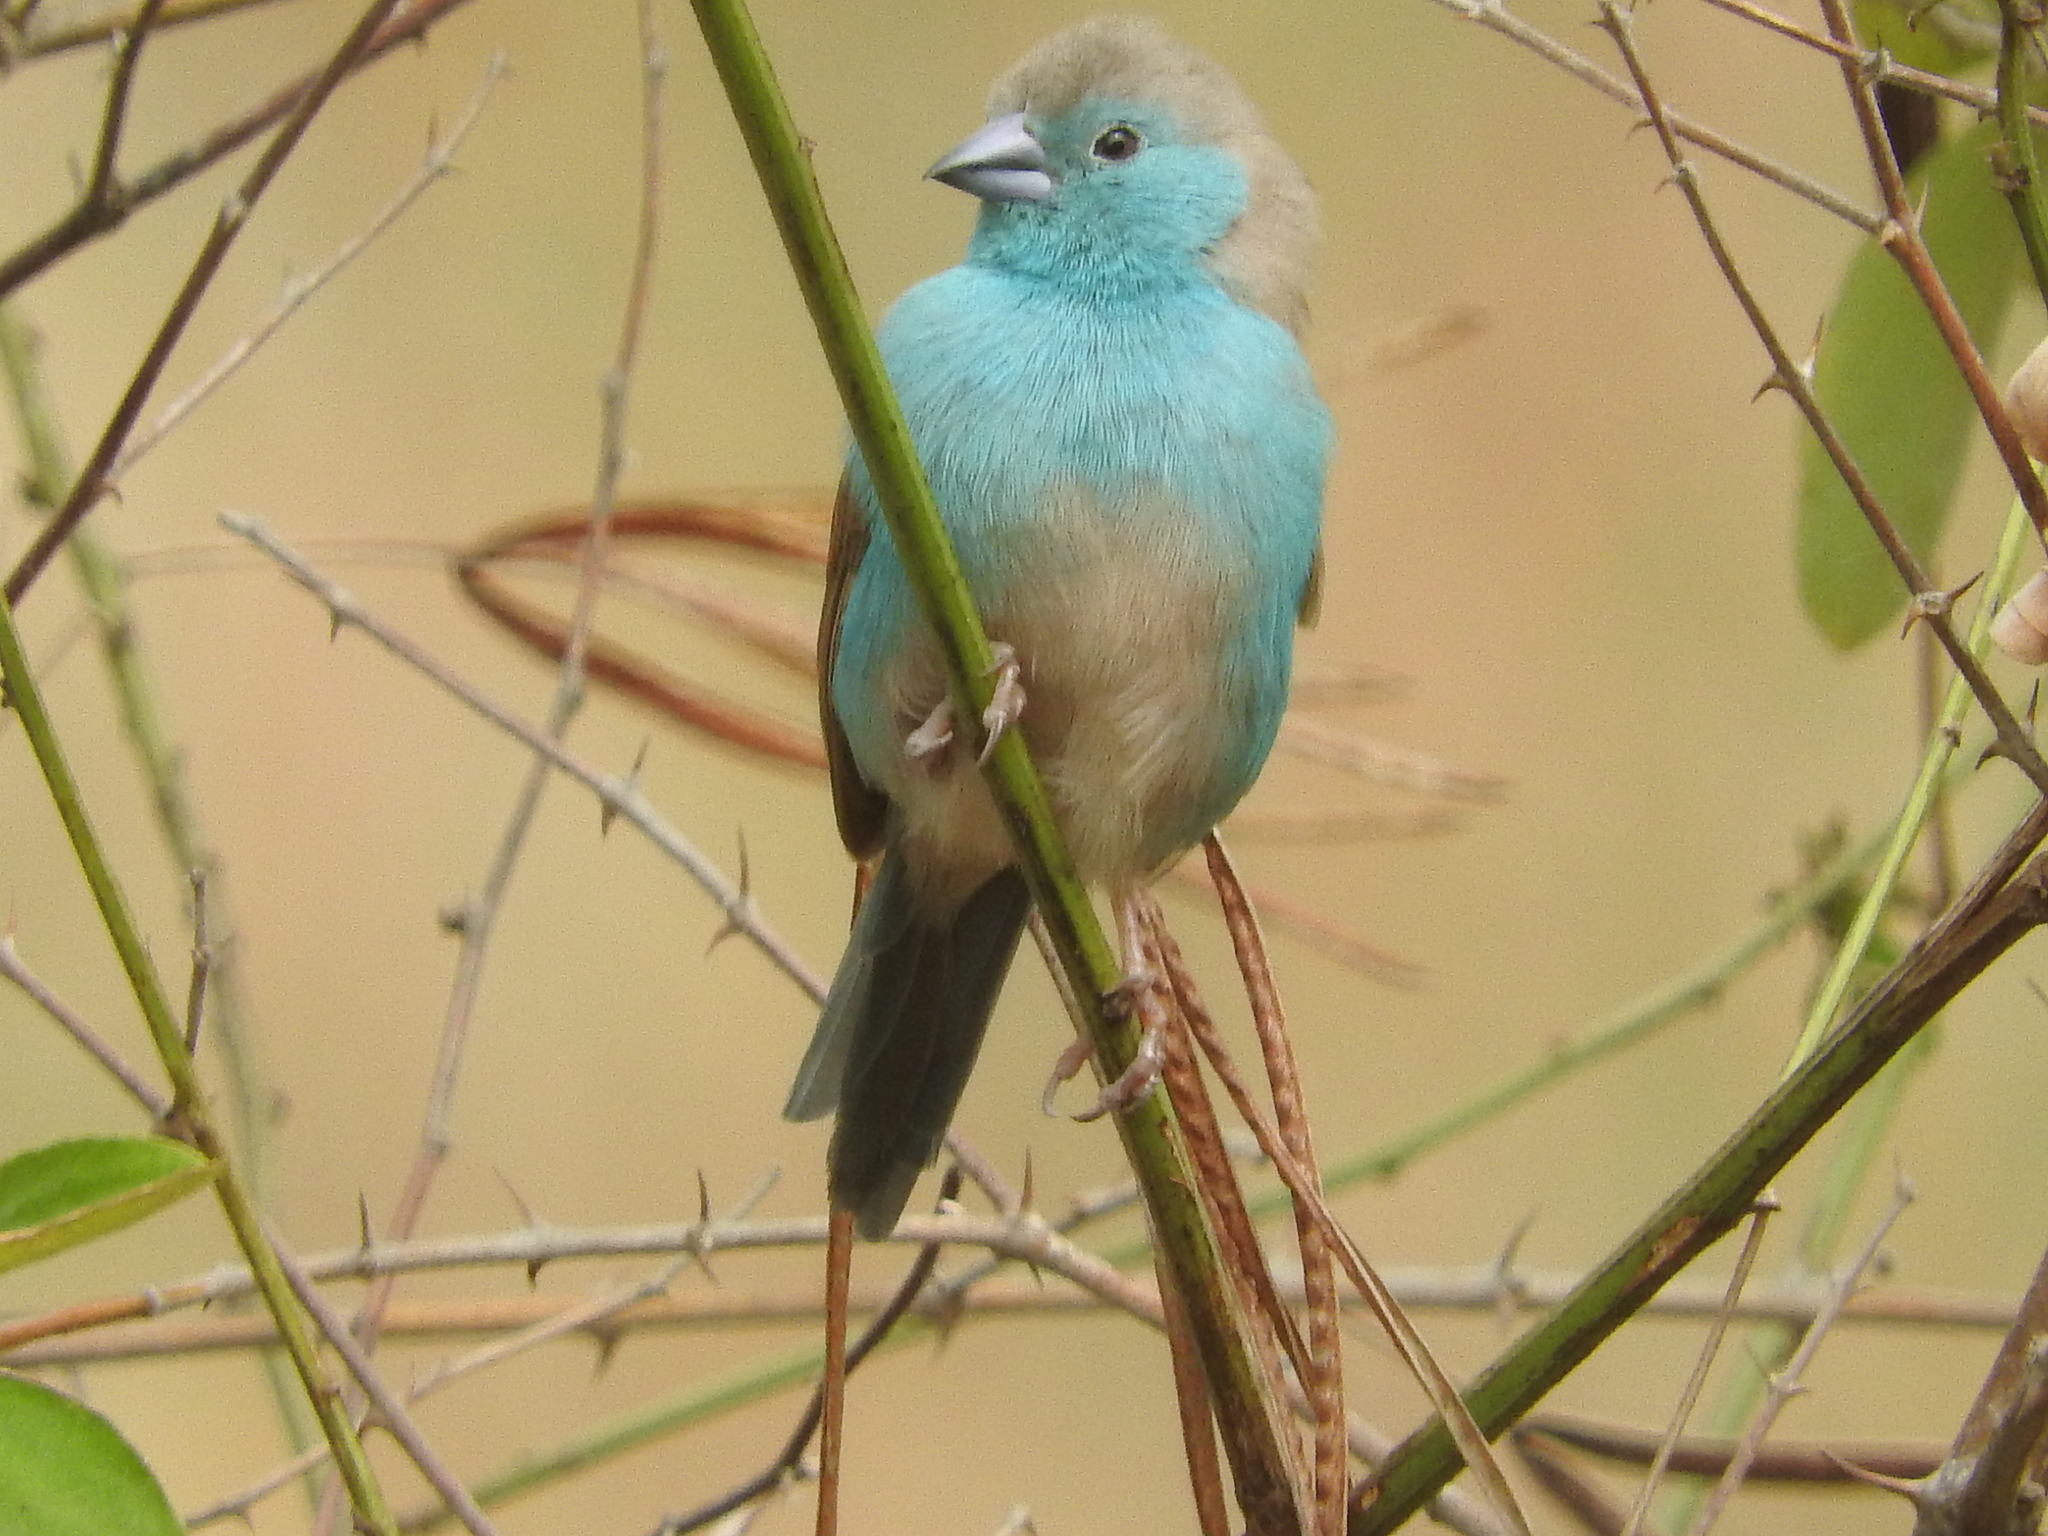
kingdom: Animalia
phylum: Chordata
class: Aves
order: Passeriformes
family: Estrildidae
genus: Uraeginthus
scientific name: Uraeginthus angolensis
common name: Blue waxbill
